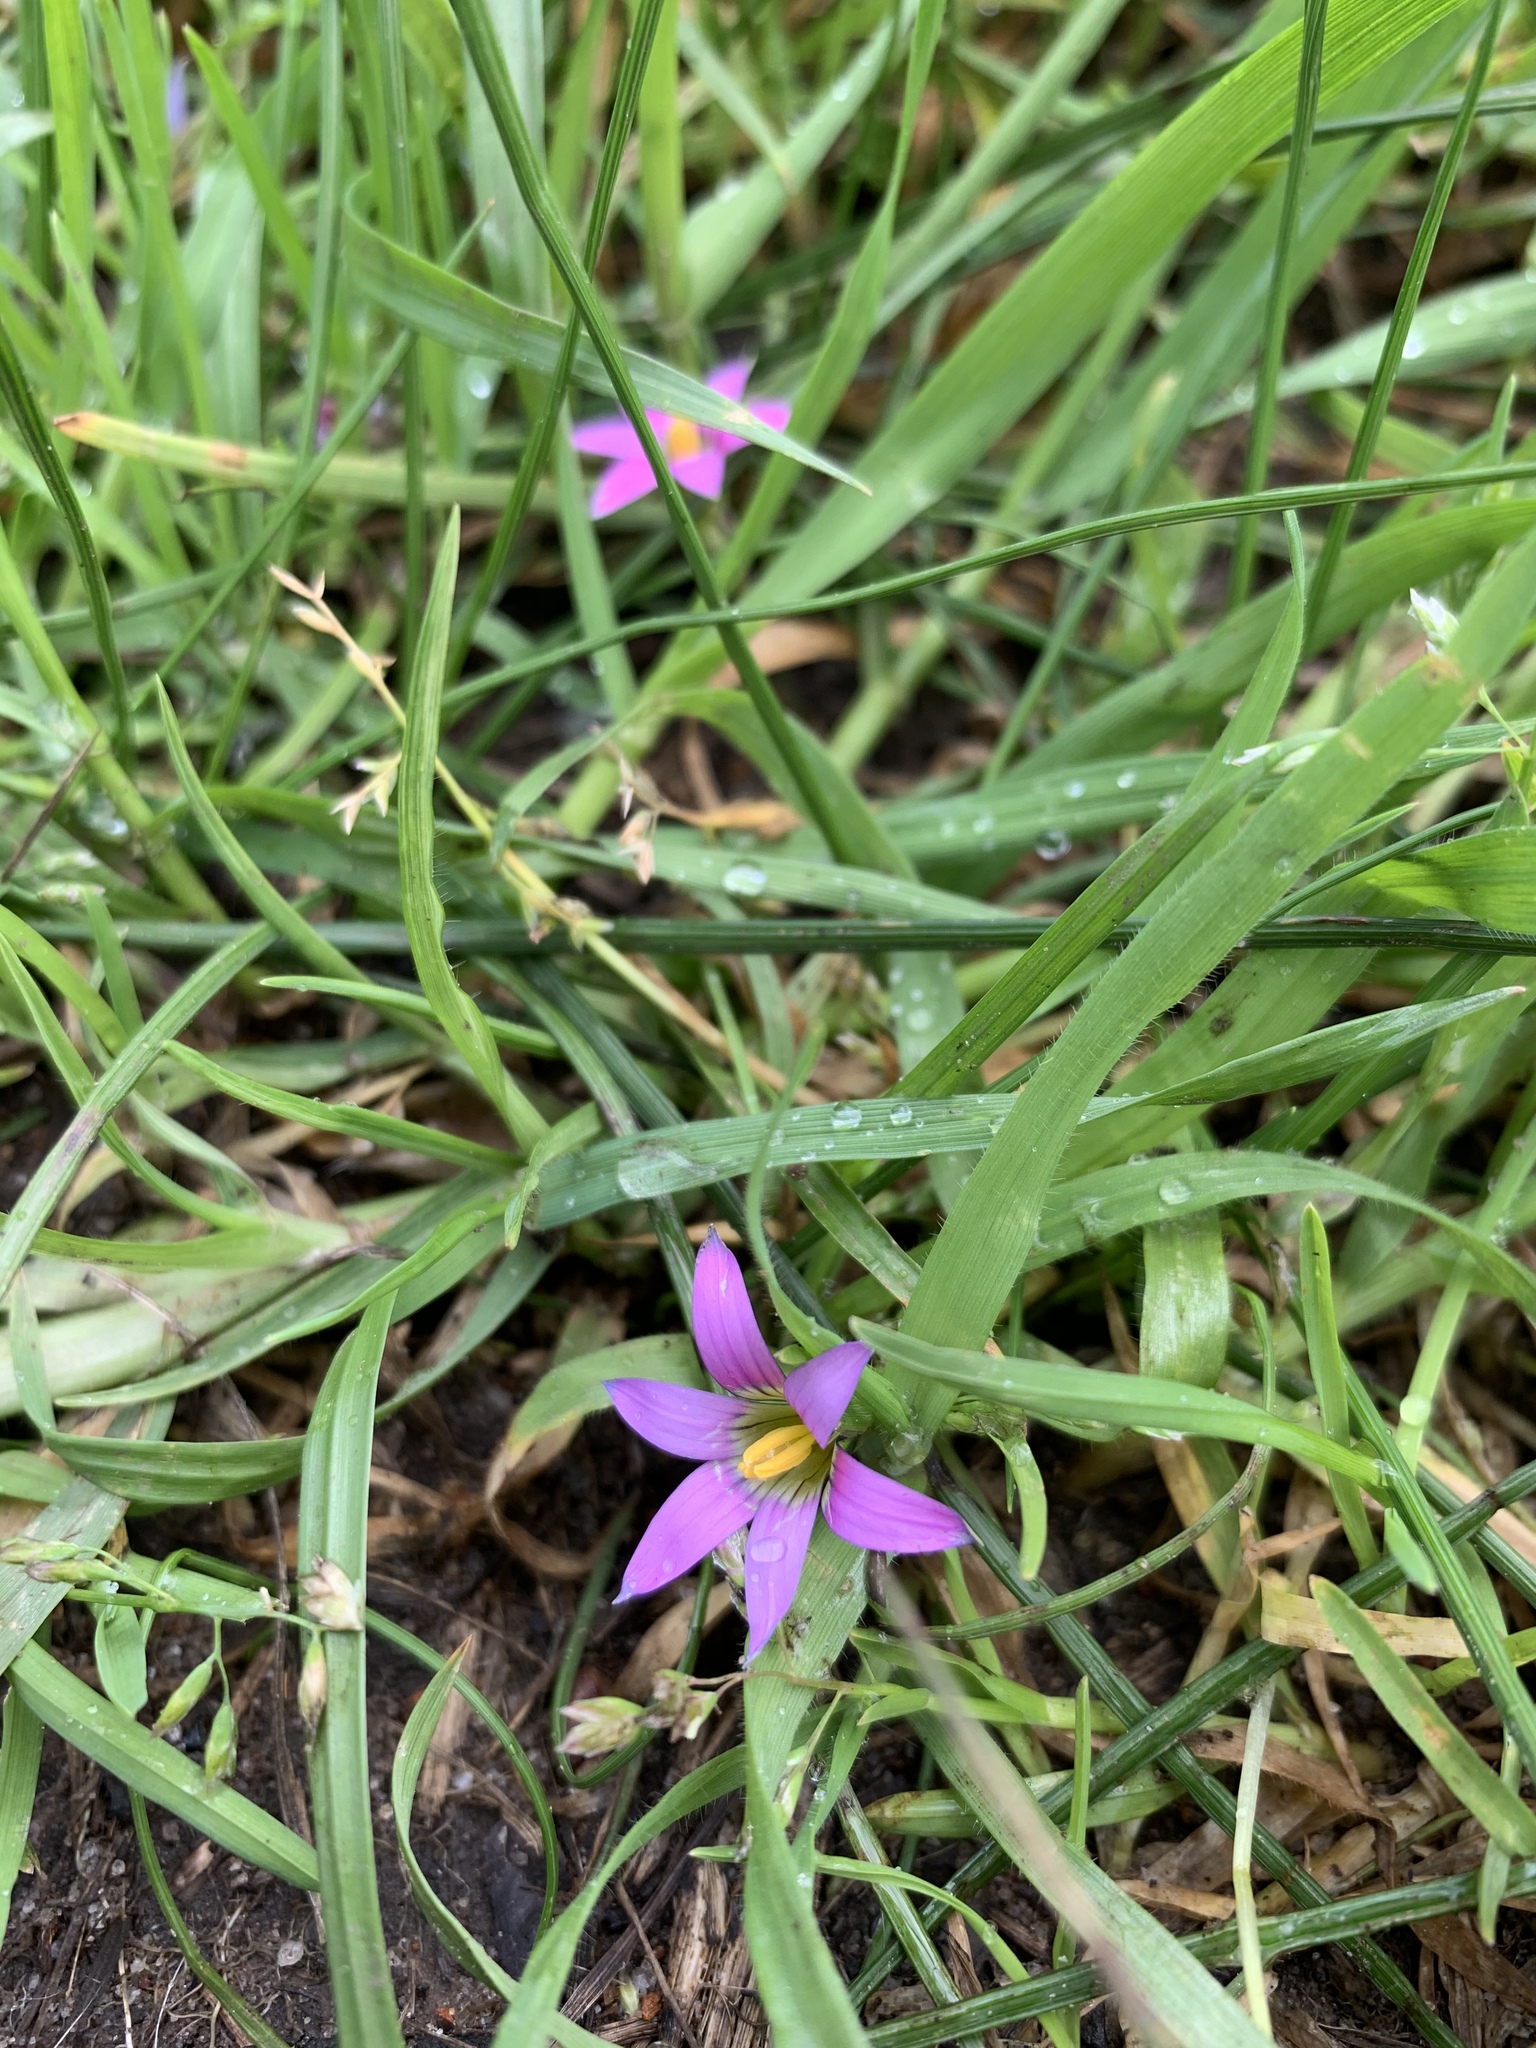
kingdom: Plantae
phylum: Tracheophyta
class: Liliopsida
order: Asparagales
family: Iridaceae
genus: Romulea
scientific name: Romulea rosea
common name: Oniongrass
